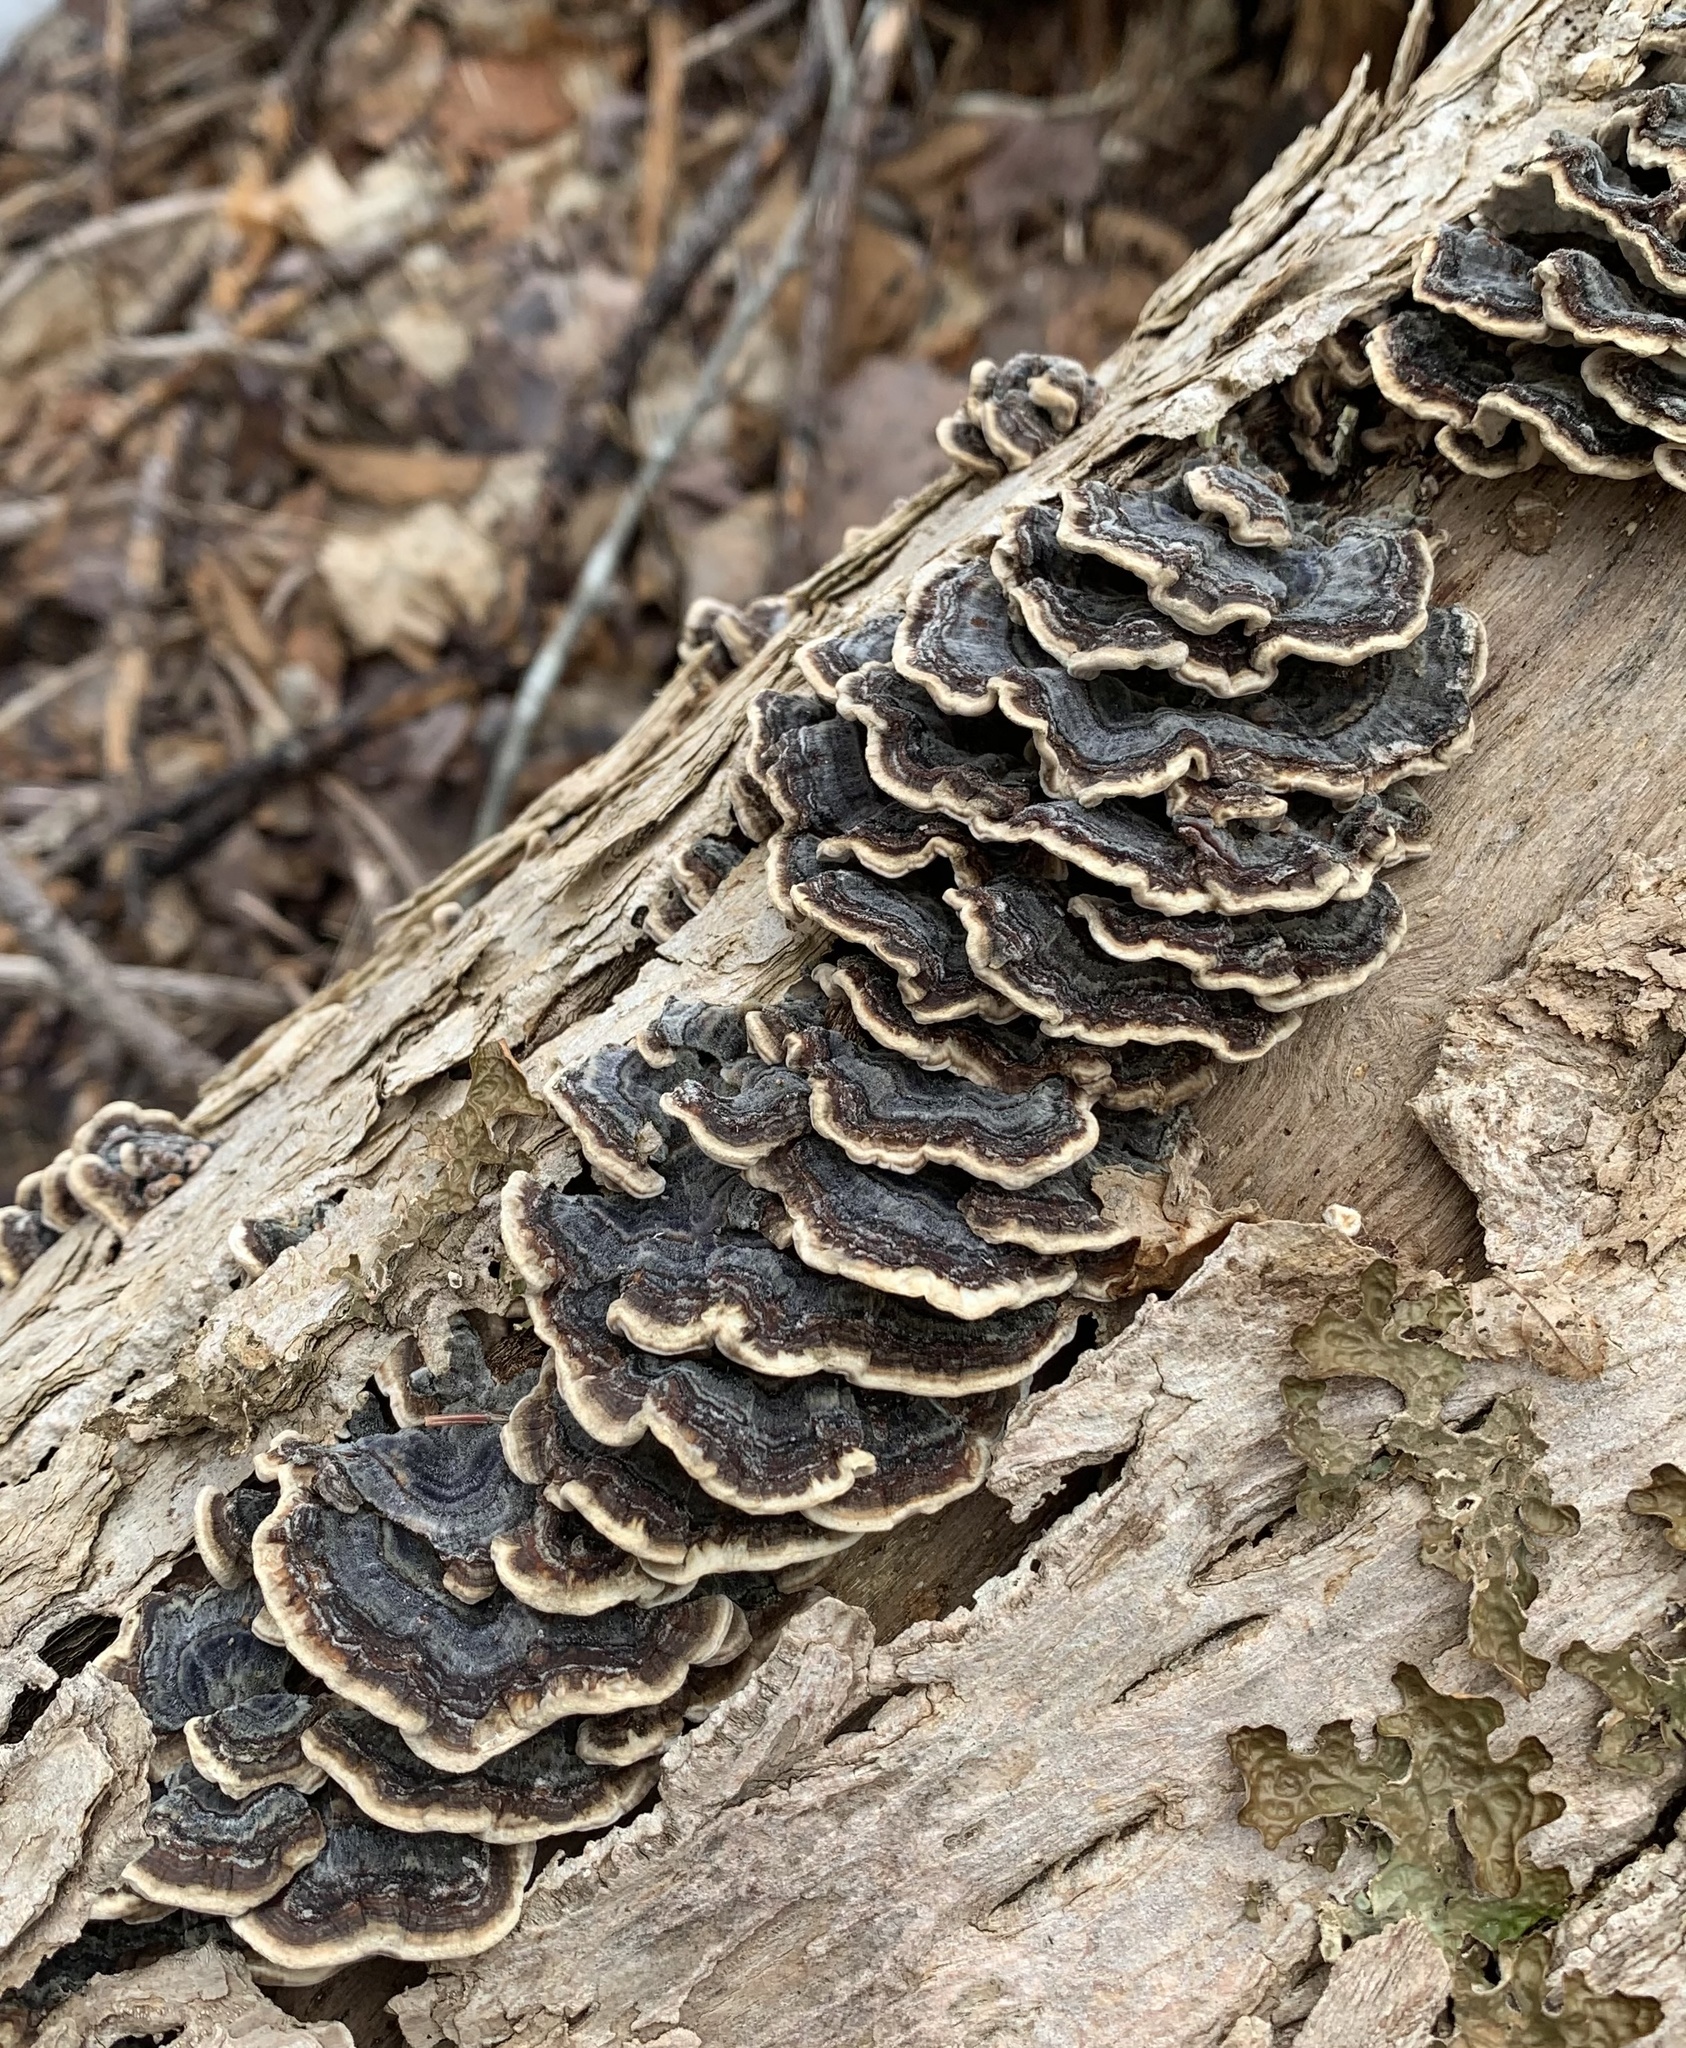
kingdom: Fungi
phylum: Basidiomycota
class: Agaricomycetes
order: Polyporales
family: Polyporaceae
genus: Trametes
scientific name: Trametes versicolor
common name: Turkeytail
